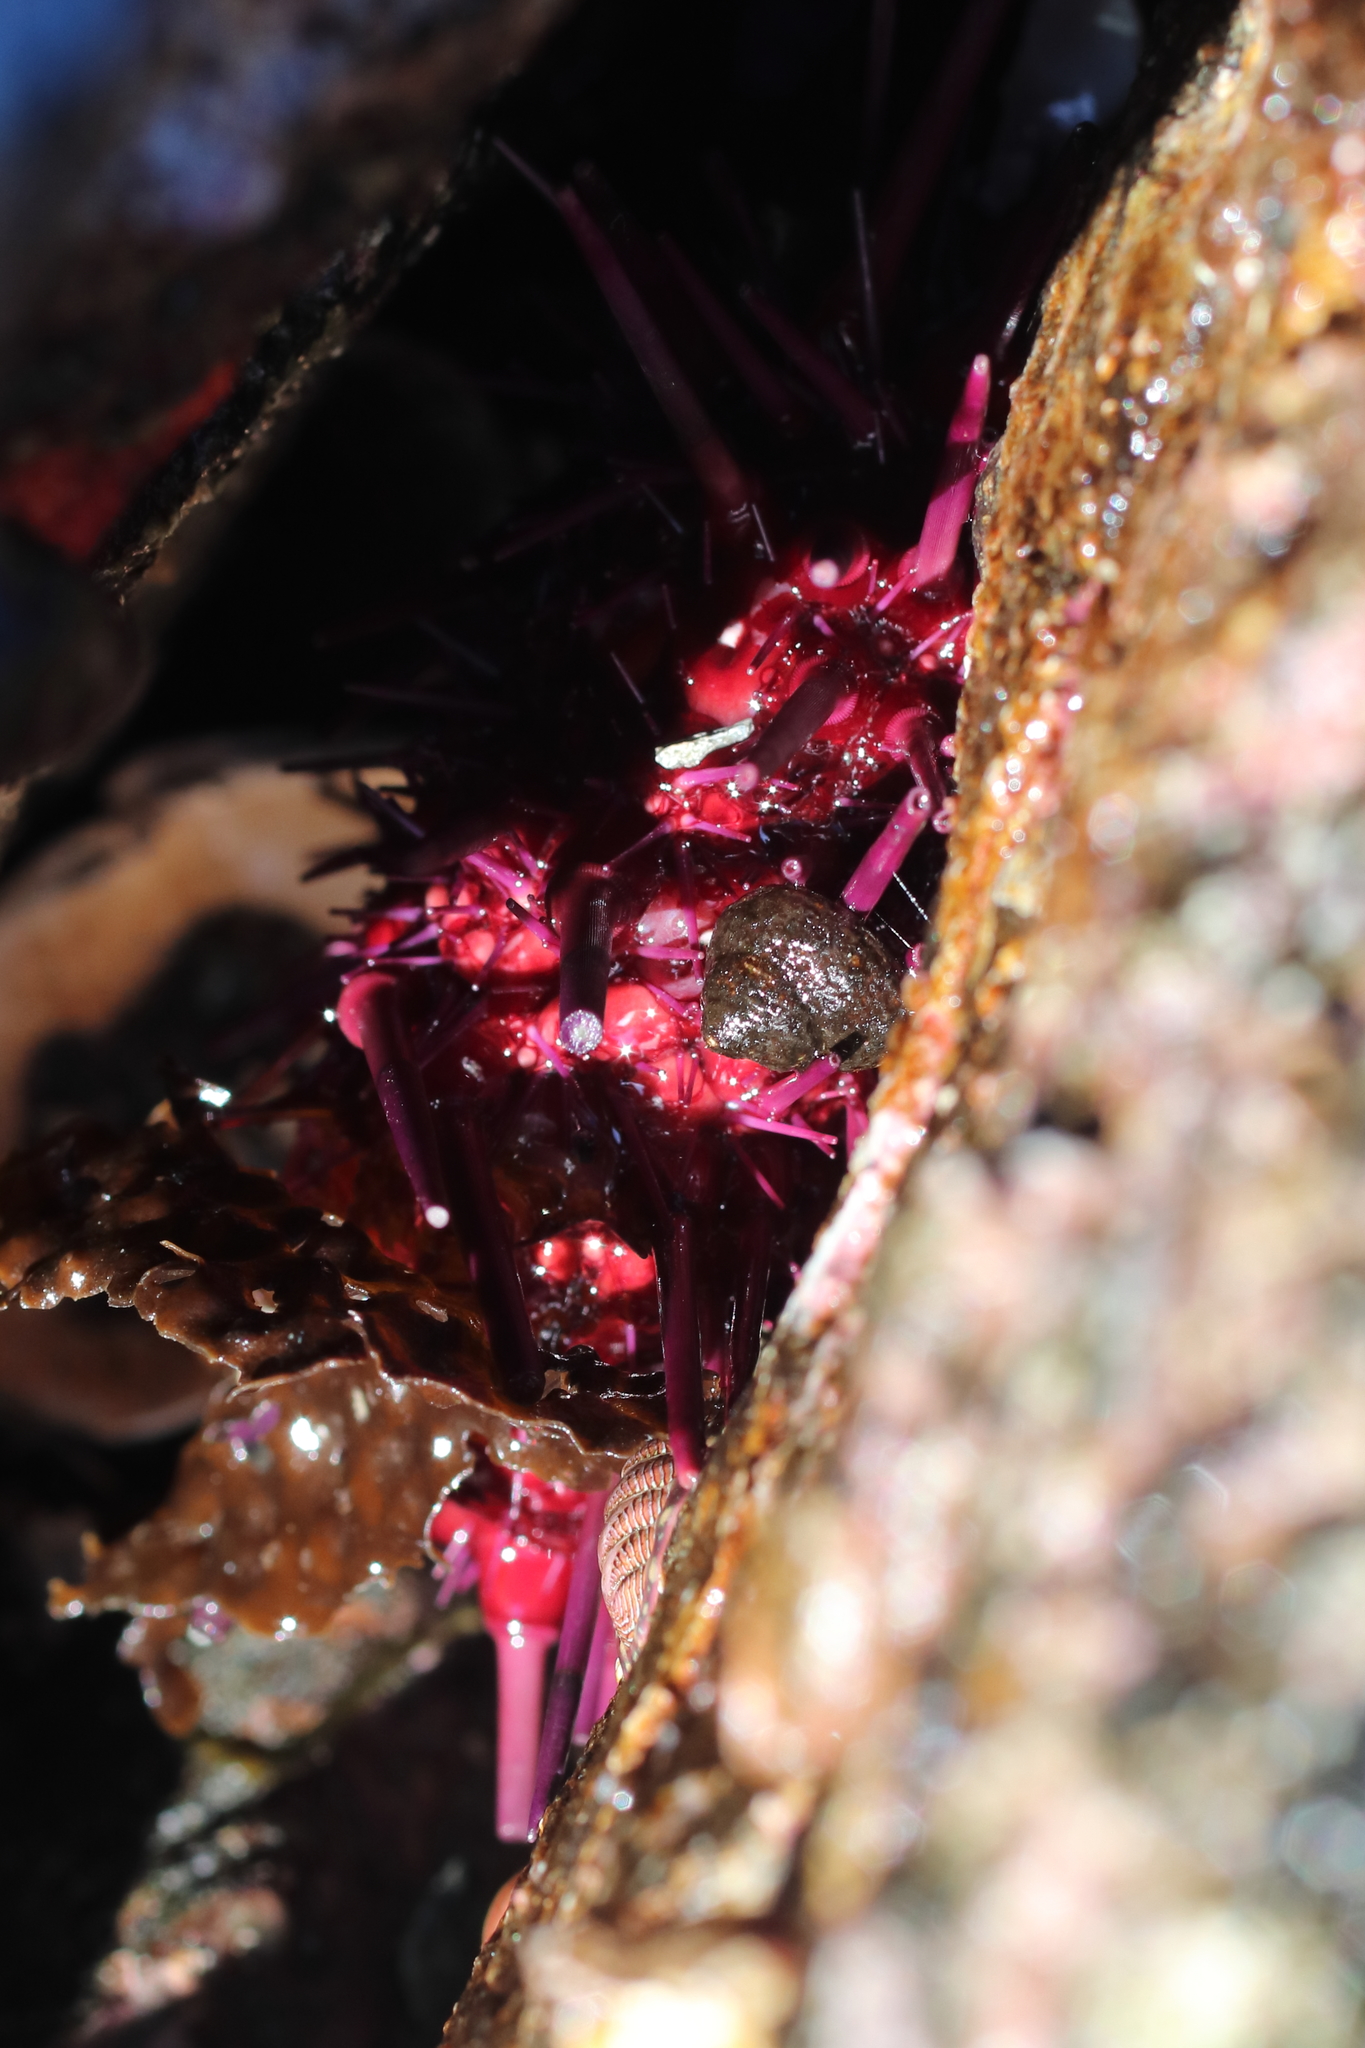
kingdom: Animalia
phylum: Echinodermata
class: Echinoidea
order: Camarodonta
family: Strongylocentrotidae
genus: Mesocentrotus
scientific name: Mesocentrotus franciscanus
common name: Red sea urchin
